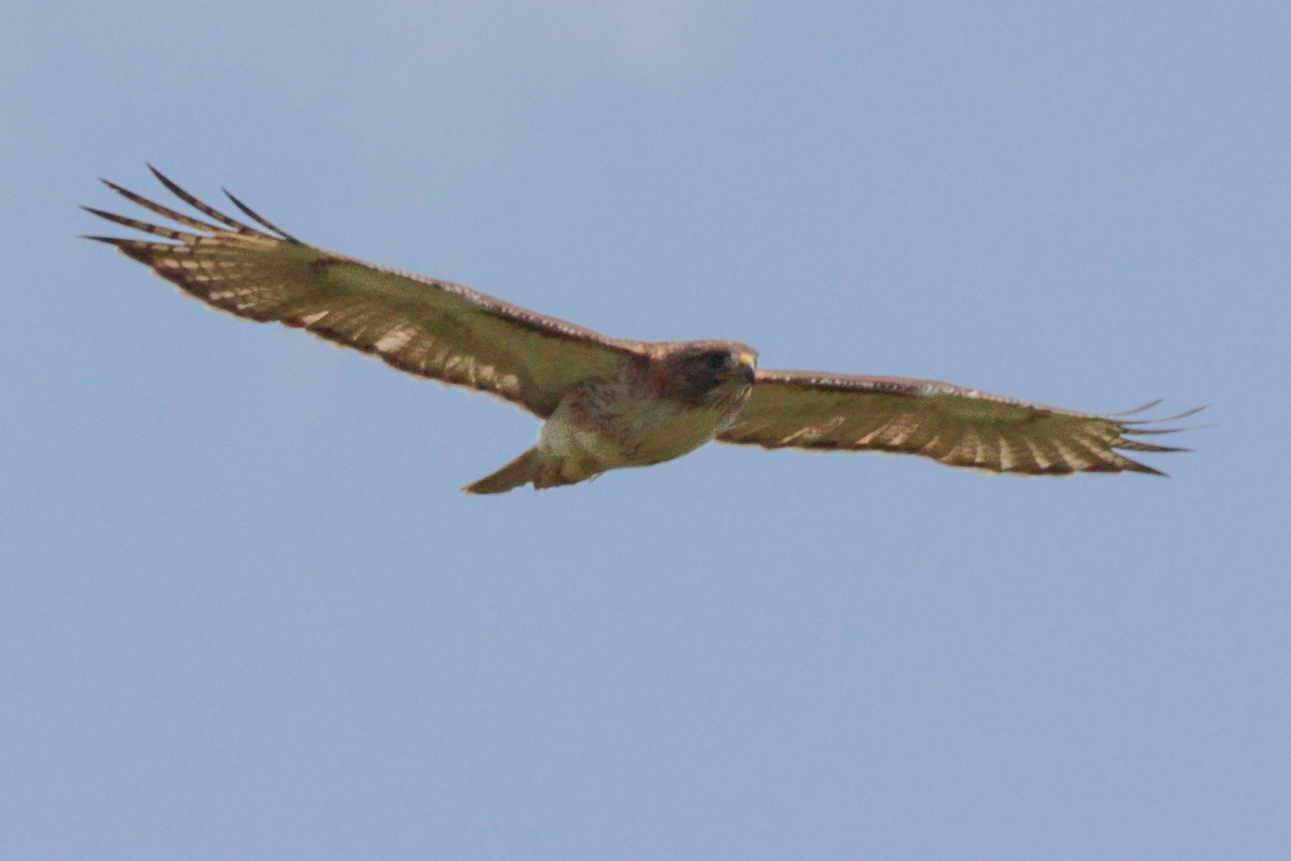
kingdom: Animalia
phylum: Chordata
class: Aves
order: Accipitriformes
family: Accipitridae
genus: Buteo
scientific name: Buteo jamaicensis
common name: Red-tailed hawk
